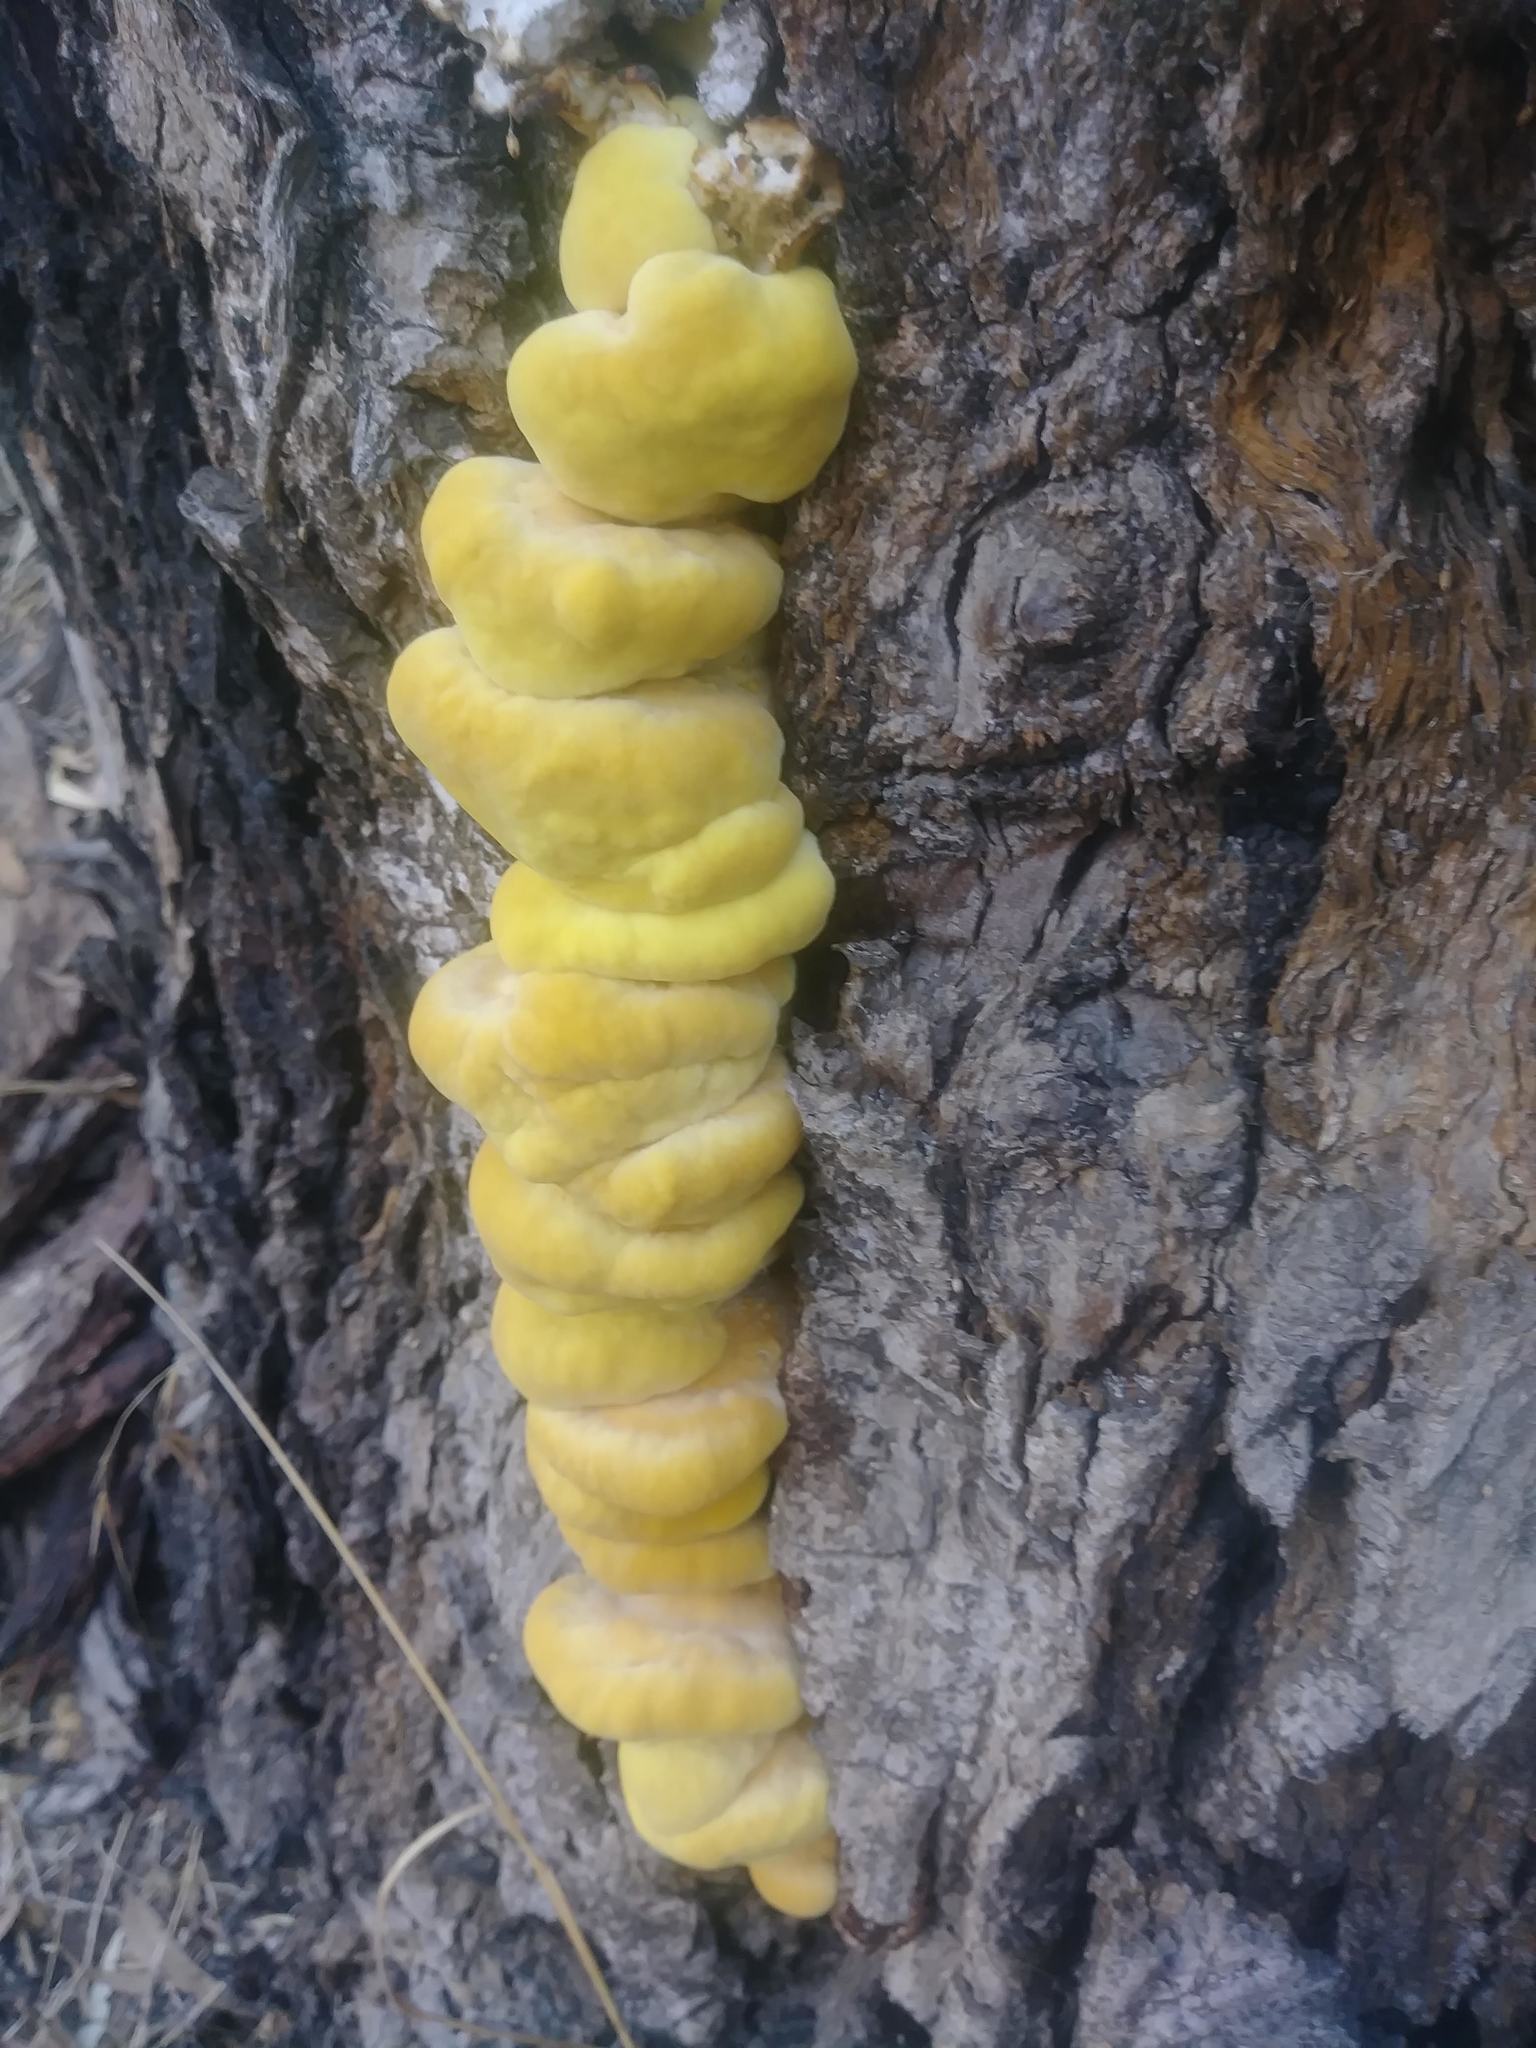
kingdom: Fungi
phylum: Basidiomycota
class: Agaricomycetes
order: Polyporales
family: Laetiporaceae
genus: Laetiporus
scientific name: Laetiporus conifericola
